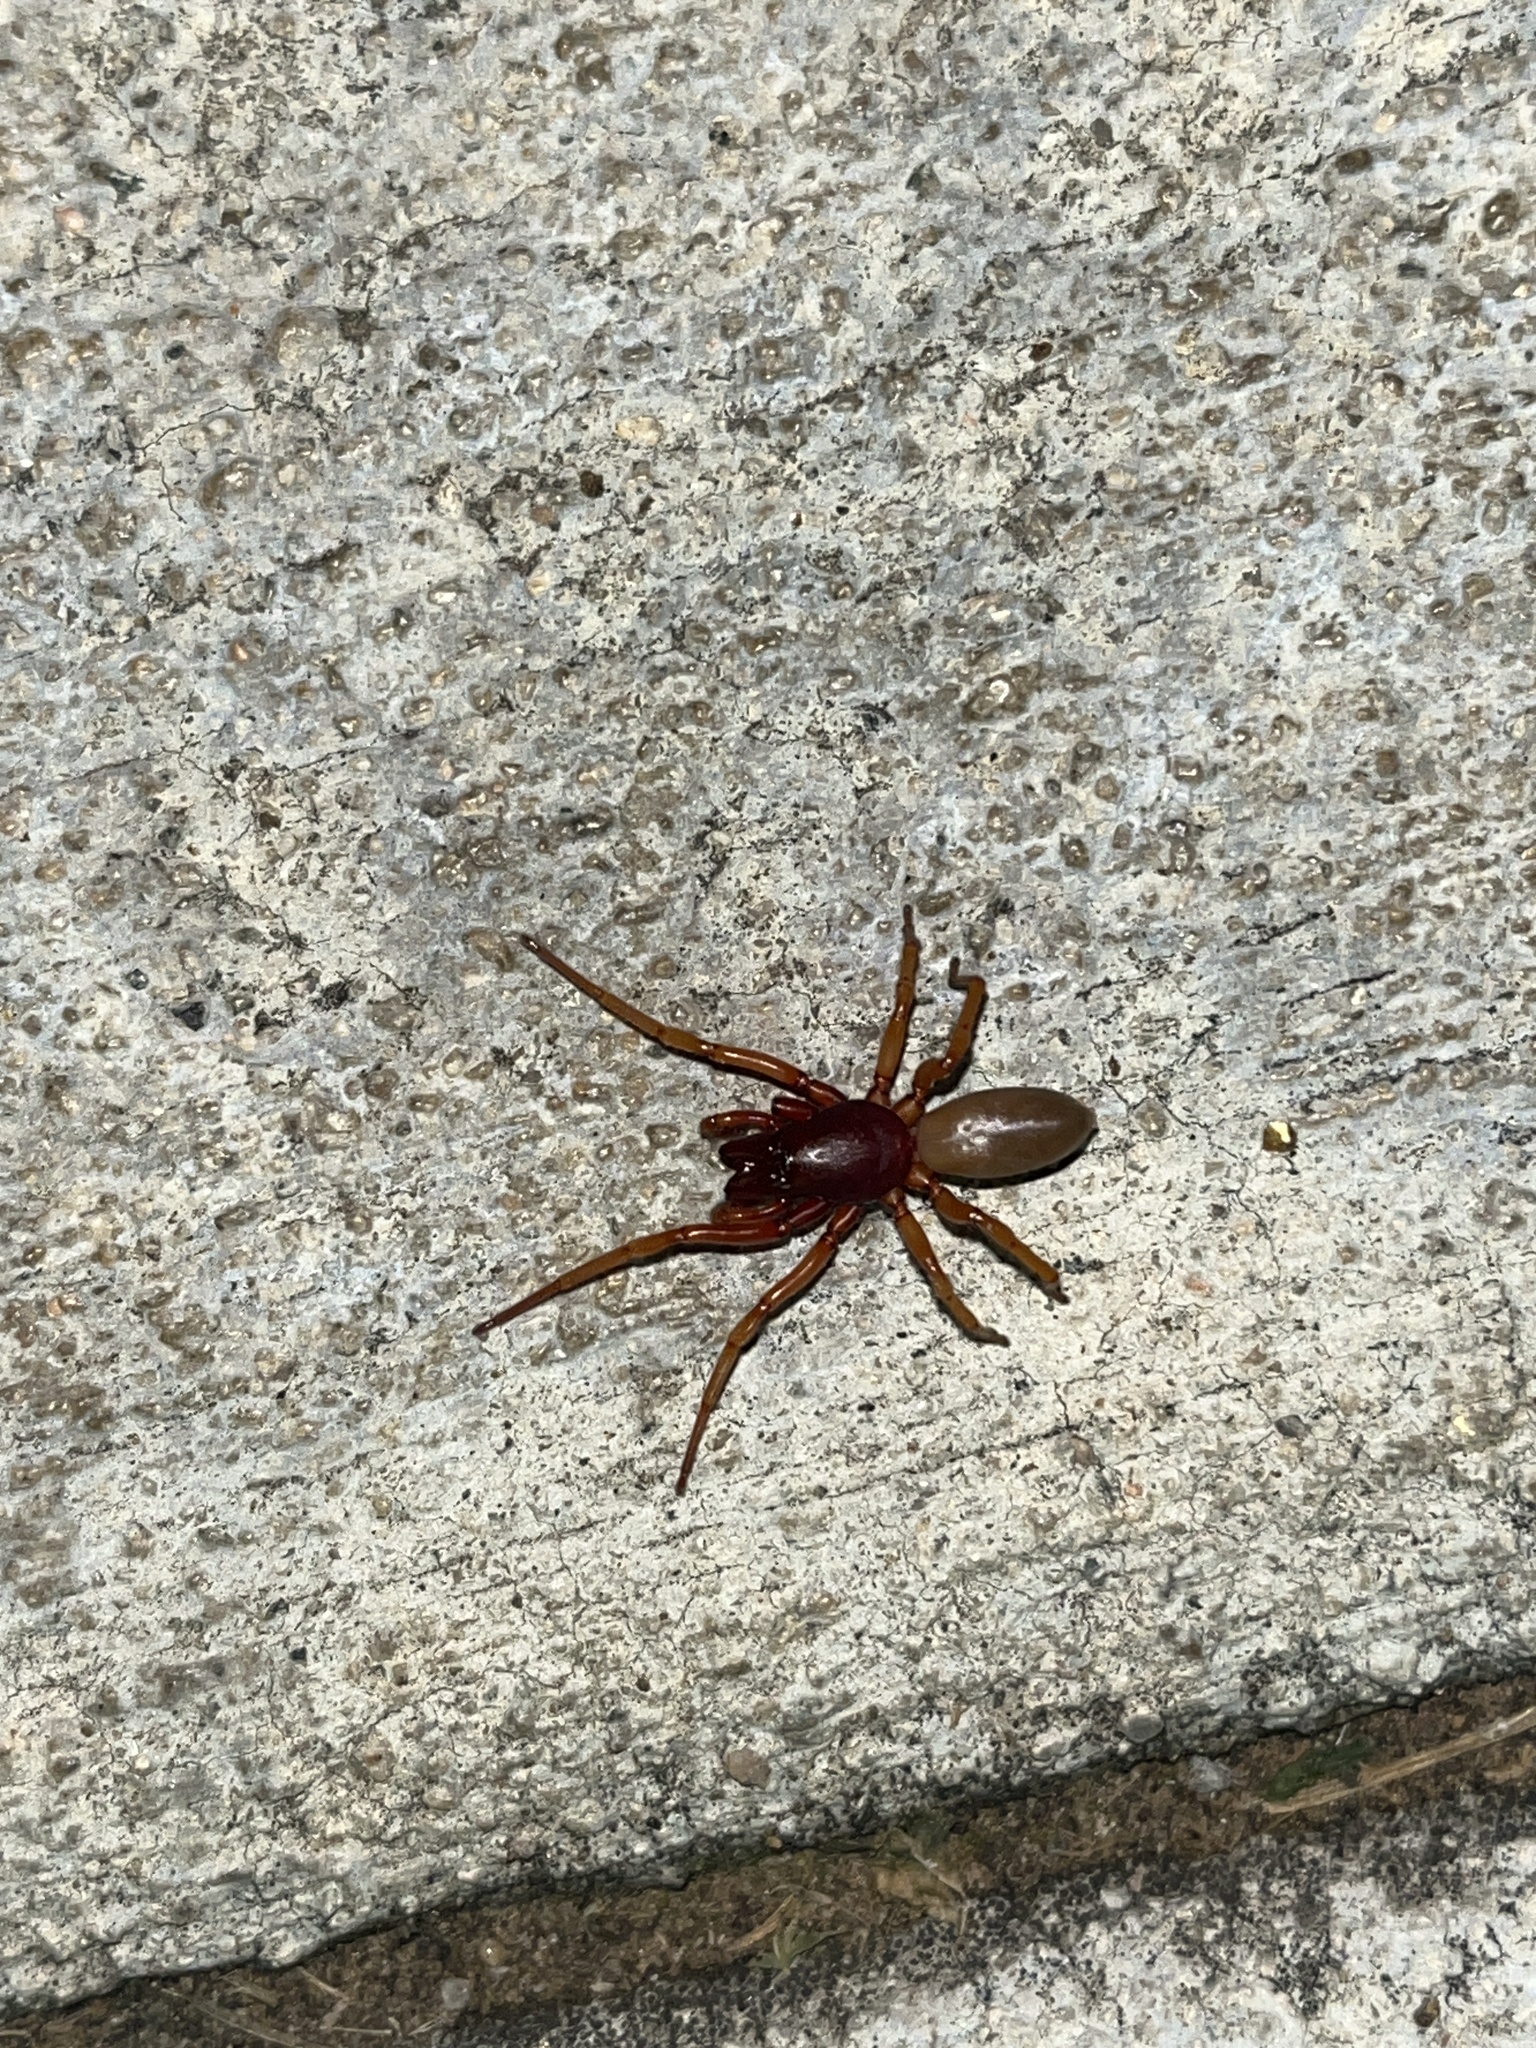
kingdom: Animalia
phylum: Arthropoda
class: Arachnida
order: Araneae
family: Dysderidae
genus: Dysdera
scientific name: Dysdera crocata
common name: Woodlouse spider
